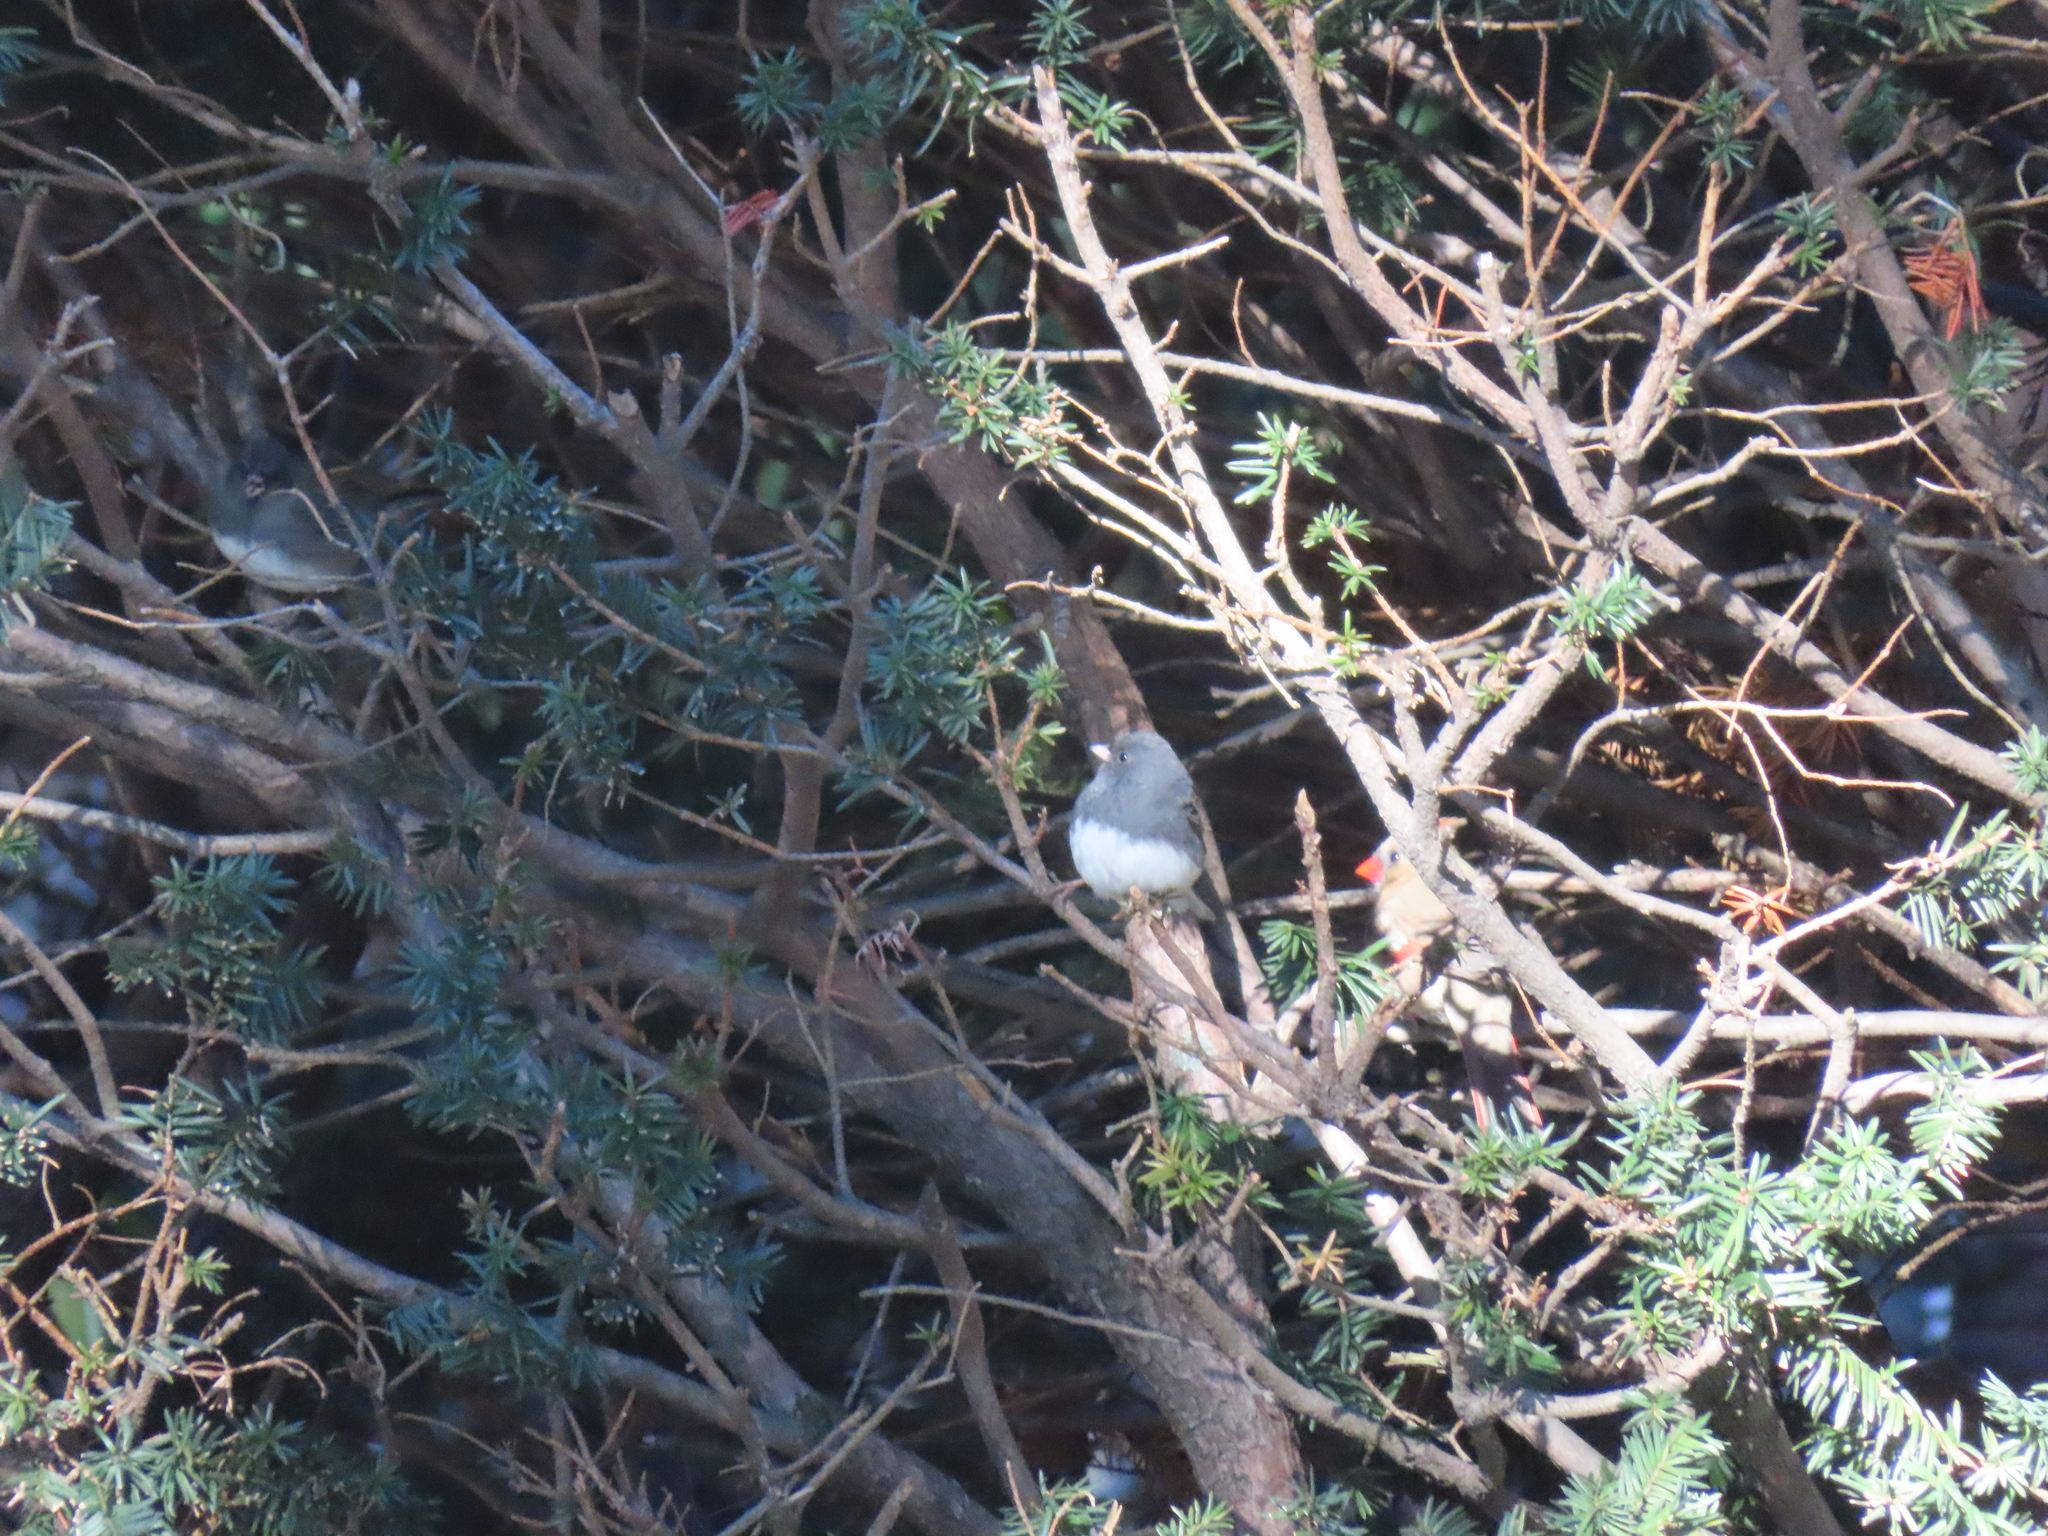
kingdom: Animalia
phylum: Chordata
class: Aves
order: Passeriformes
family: Cardinalidae
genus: Cardinalis
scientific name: Cardinalis cardinalis
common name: Northern cardinal
